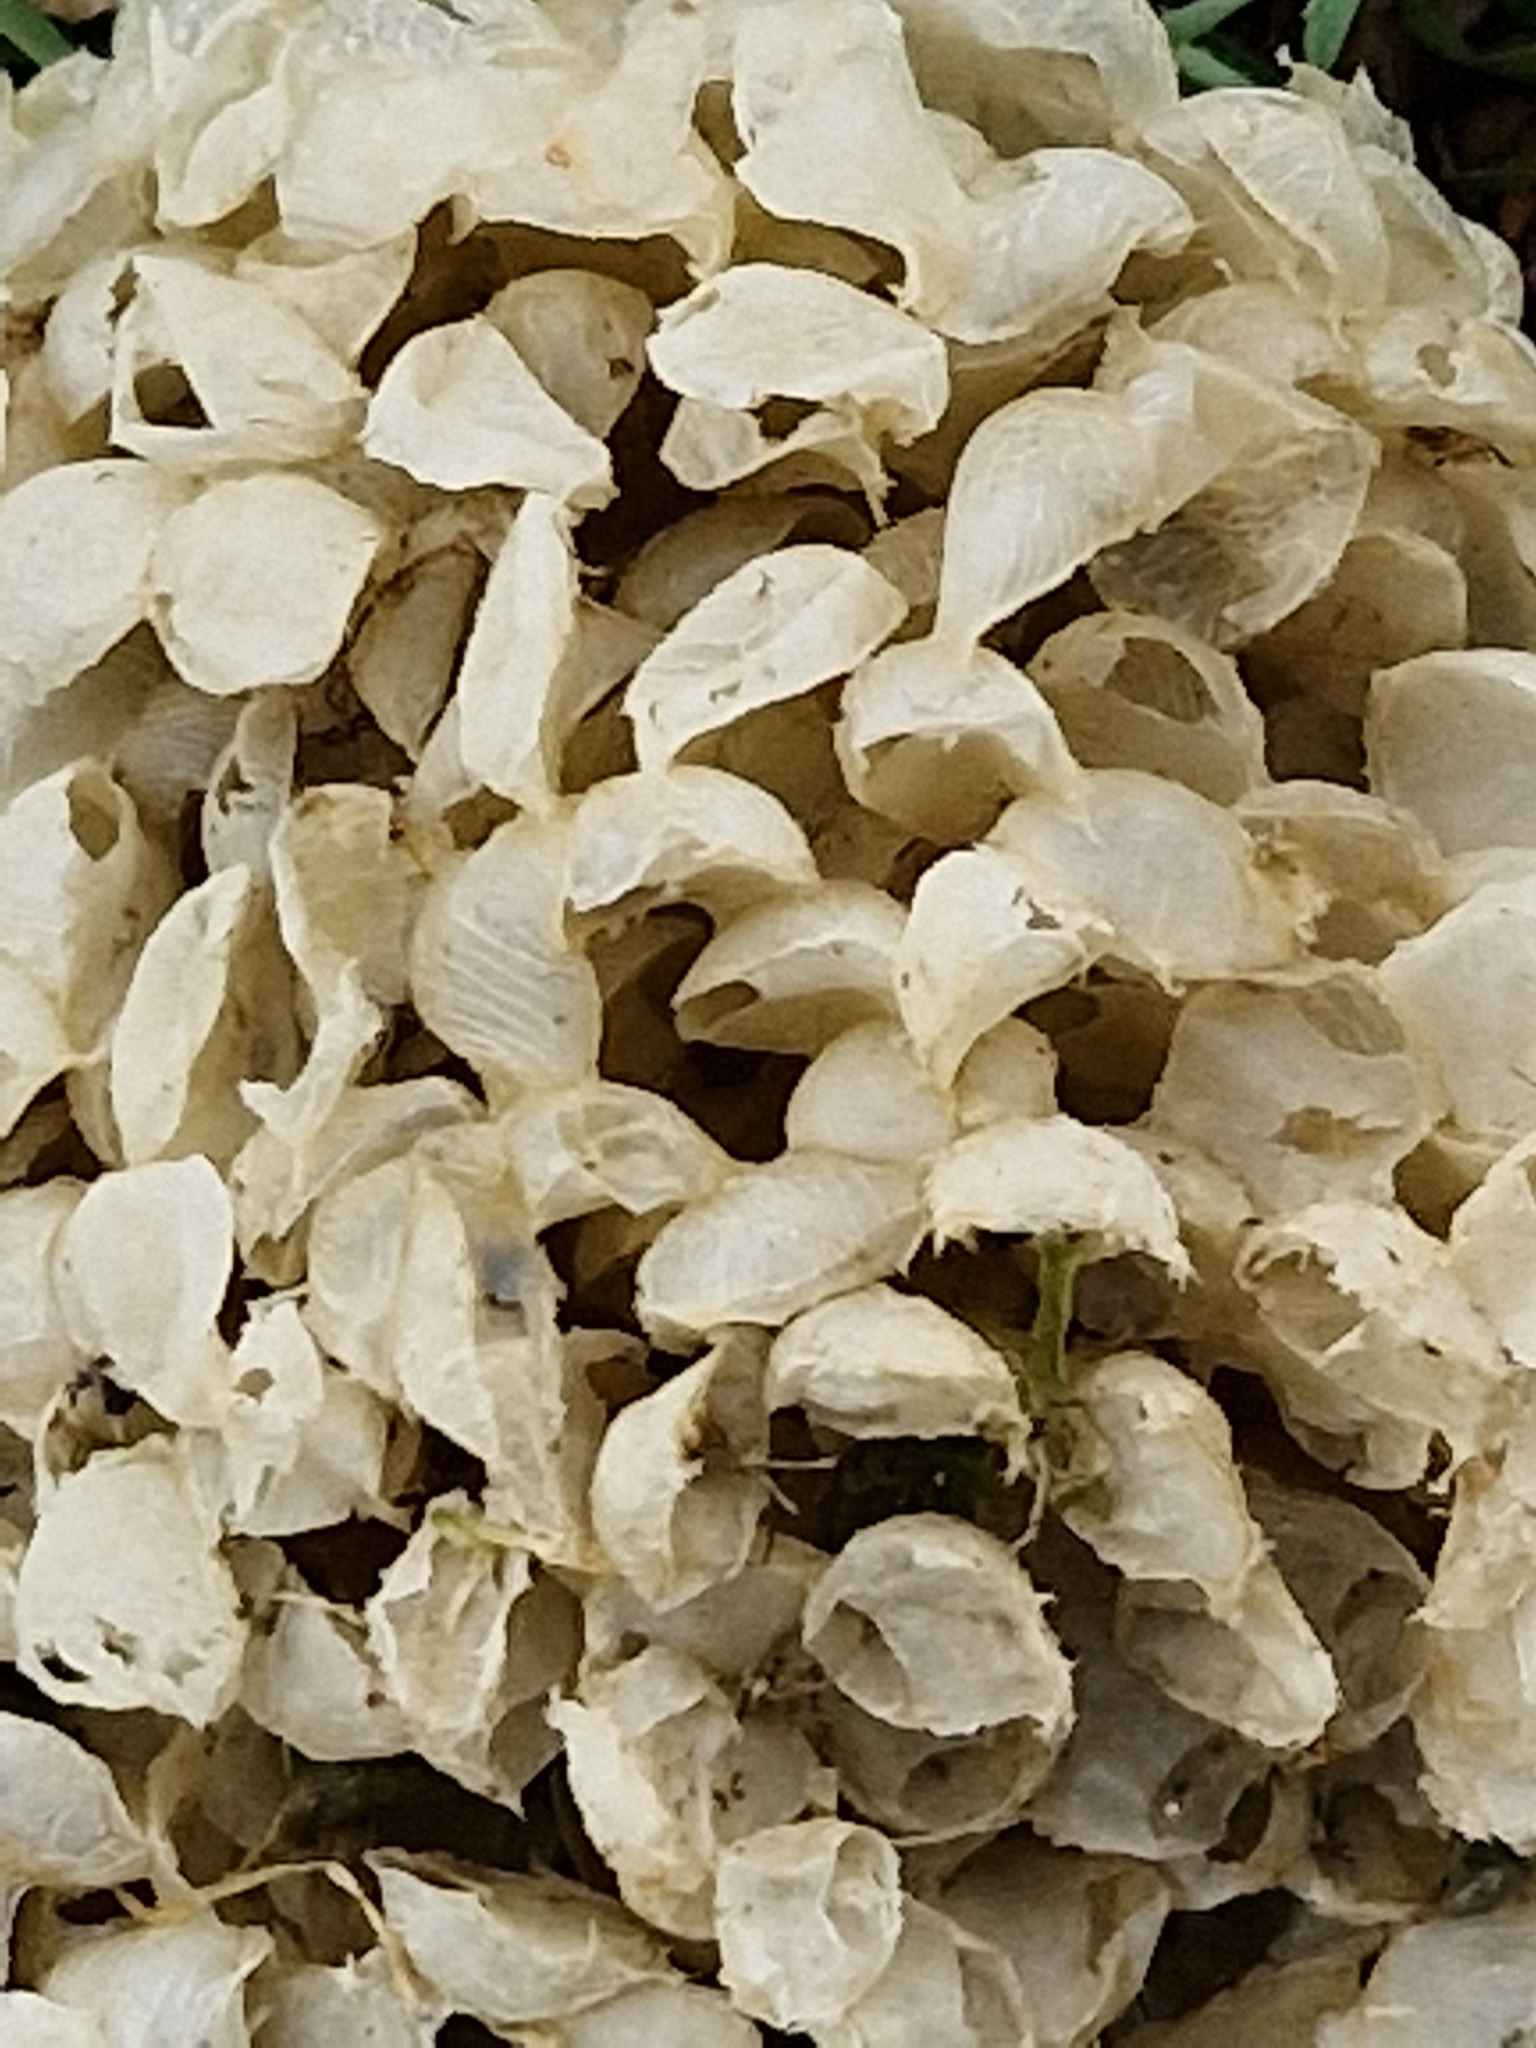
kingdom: Animalia
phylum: Mollusca
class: Gastropoda
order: Neogastropoda
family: Buccinidae
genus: Buccinum
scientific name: Buccinum undatum
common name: Common whelk
